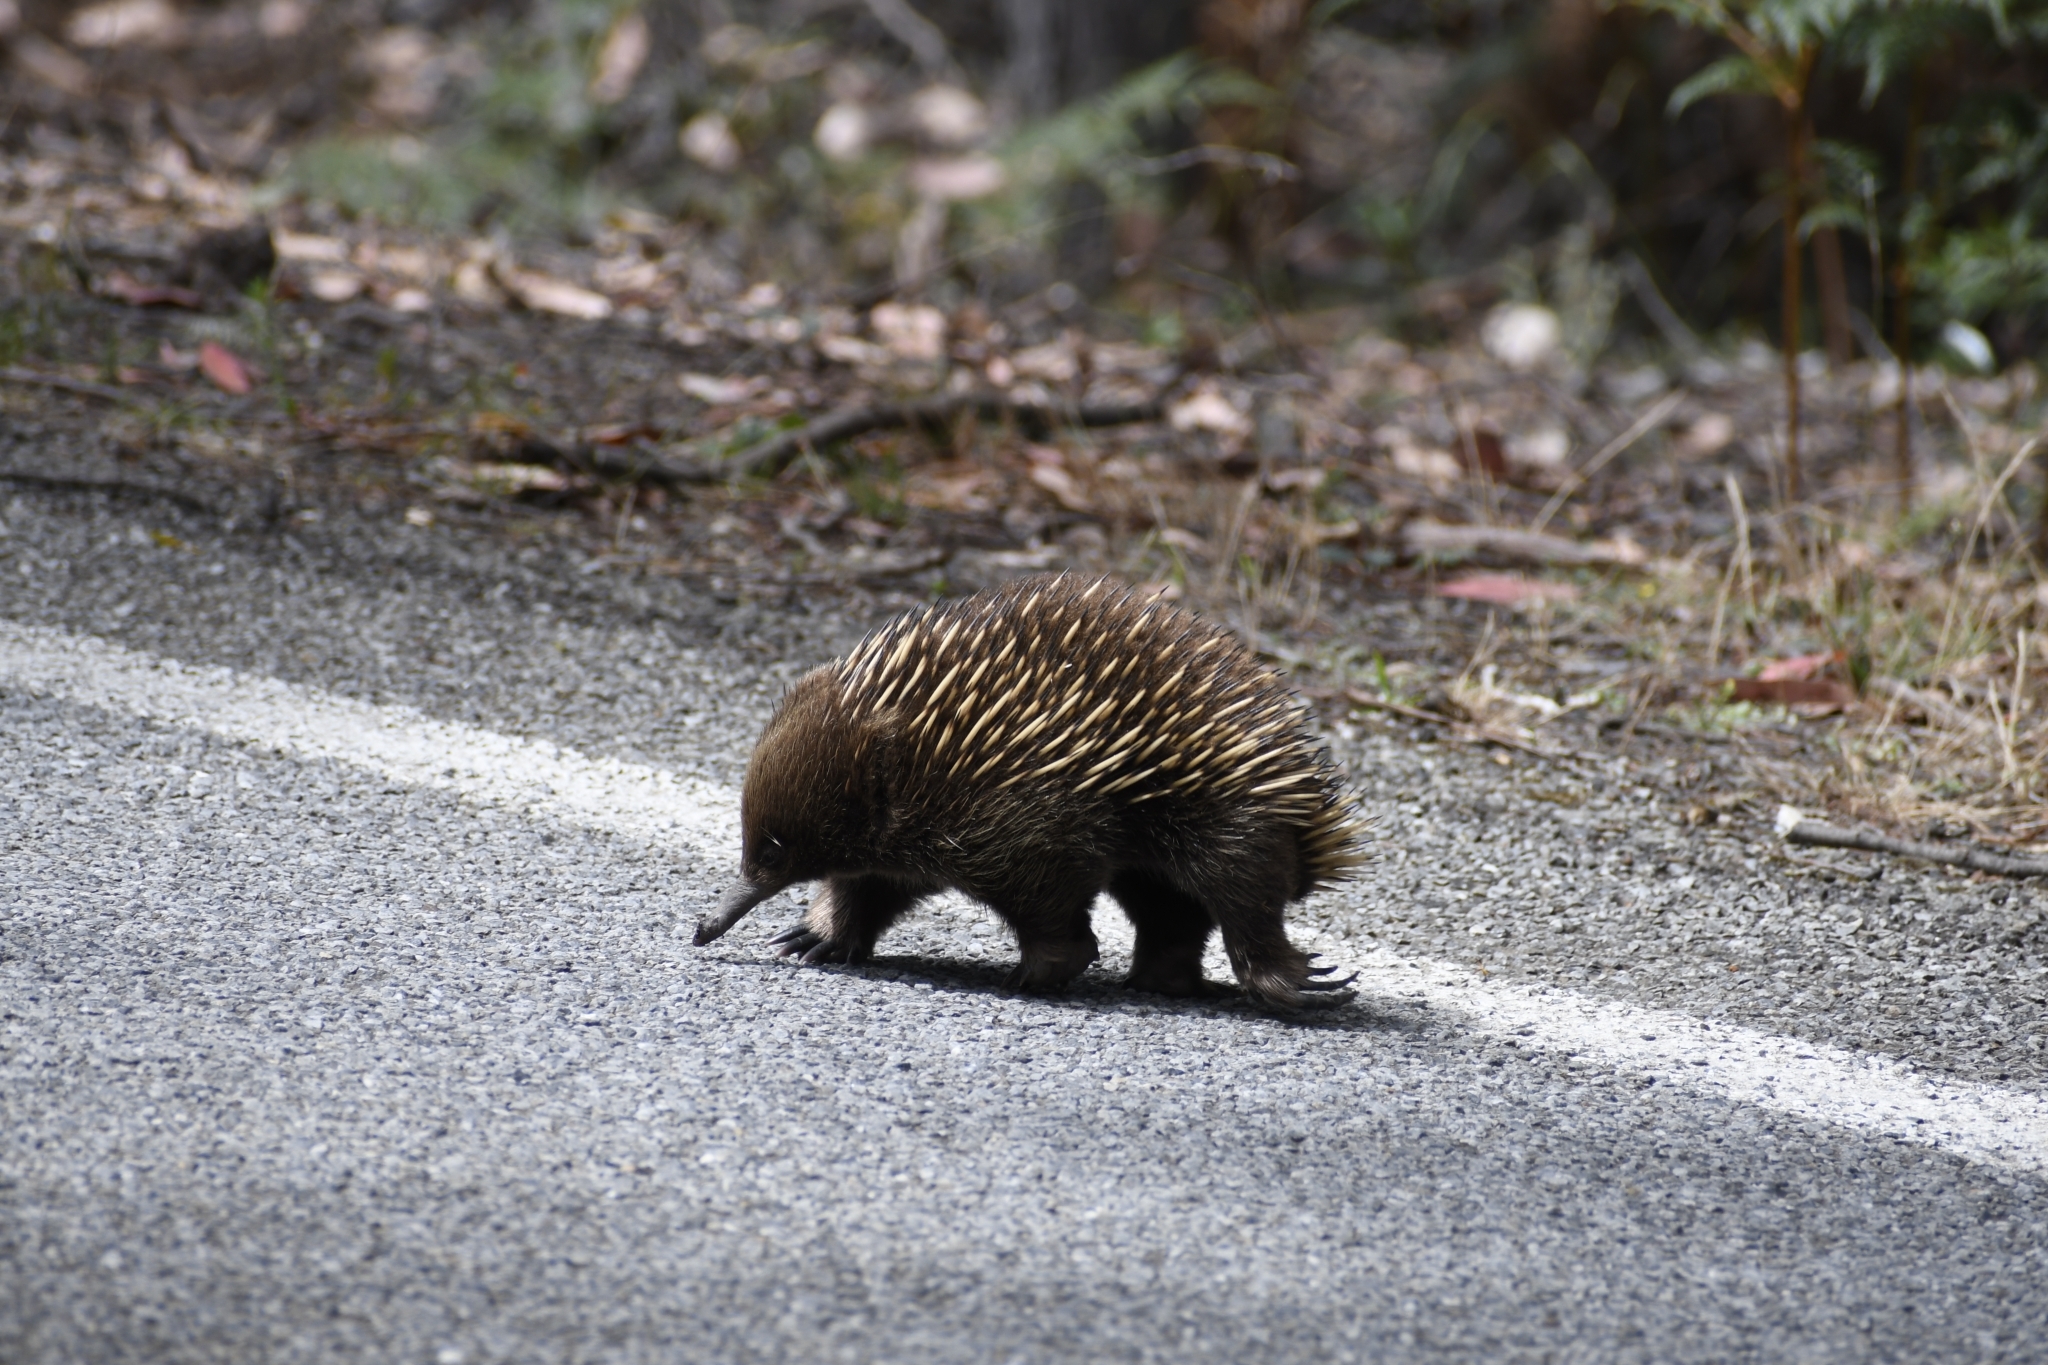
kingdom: Animalia
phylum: Chordata
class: Mammalia
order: Monotremata
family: Tachyglossidae
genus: Tachyglossus
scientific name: Tachyglossus aculeatus
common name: Short-beaked echidna
